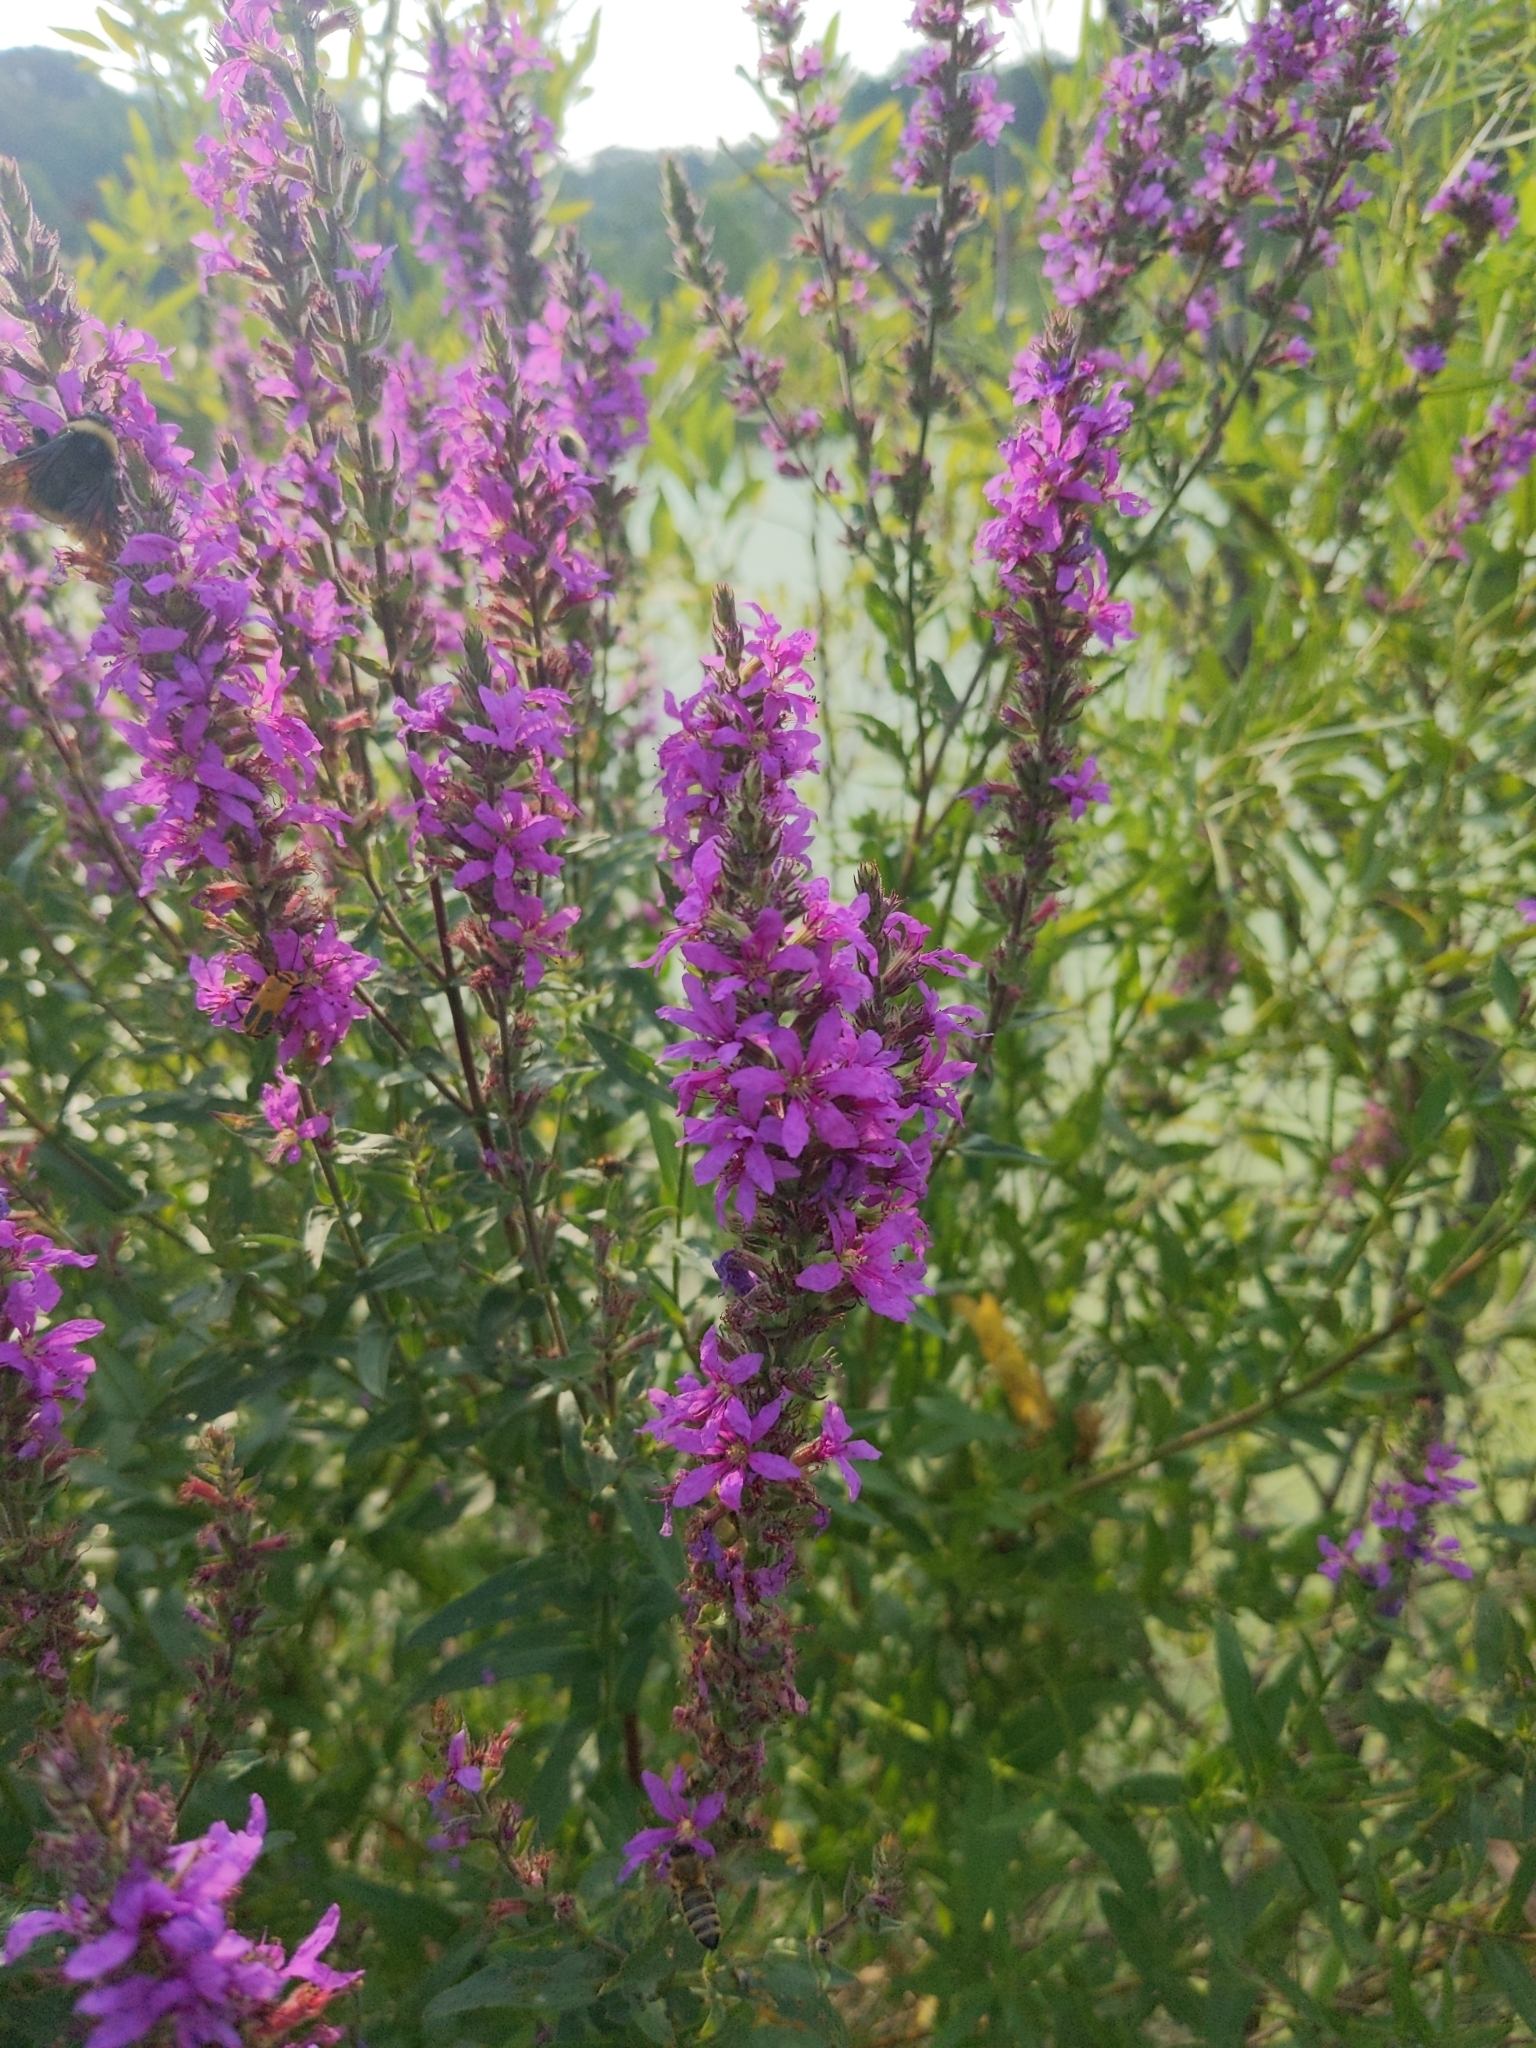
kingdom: Plantae
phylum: Tracheophyta
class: Magnoliopsida
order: Myrtales
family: Lythraceae
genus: Lythrum
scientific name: Lythrum salicaria
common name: Purple loosestrife
